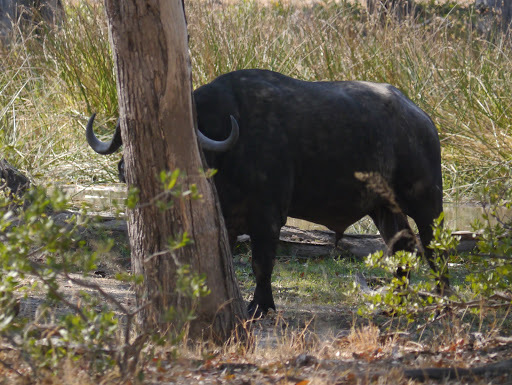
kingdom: Animalia
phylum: Chordata
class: Mammalia
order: Artiodactyla
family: Bovidae
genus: Syncerus
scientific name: Syncerus caffer
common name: African buffalo
